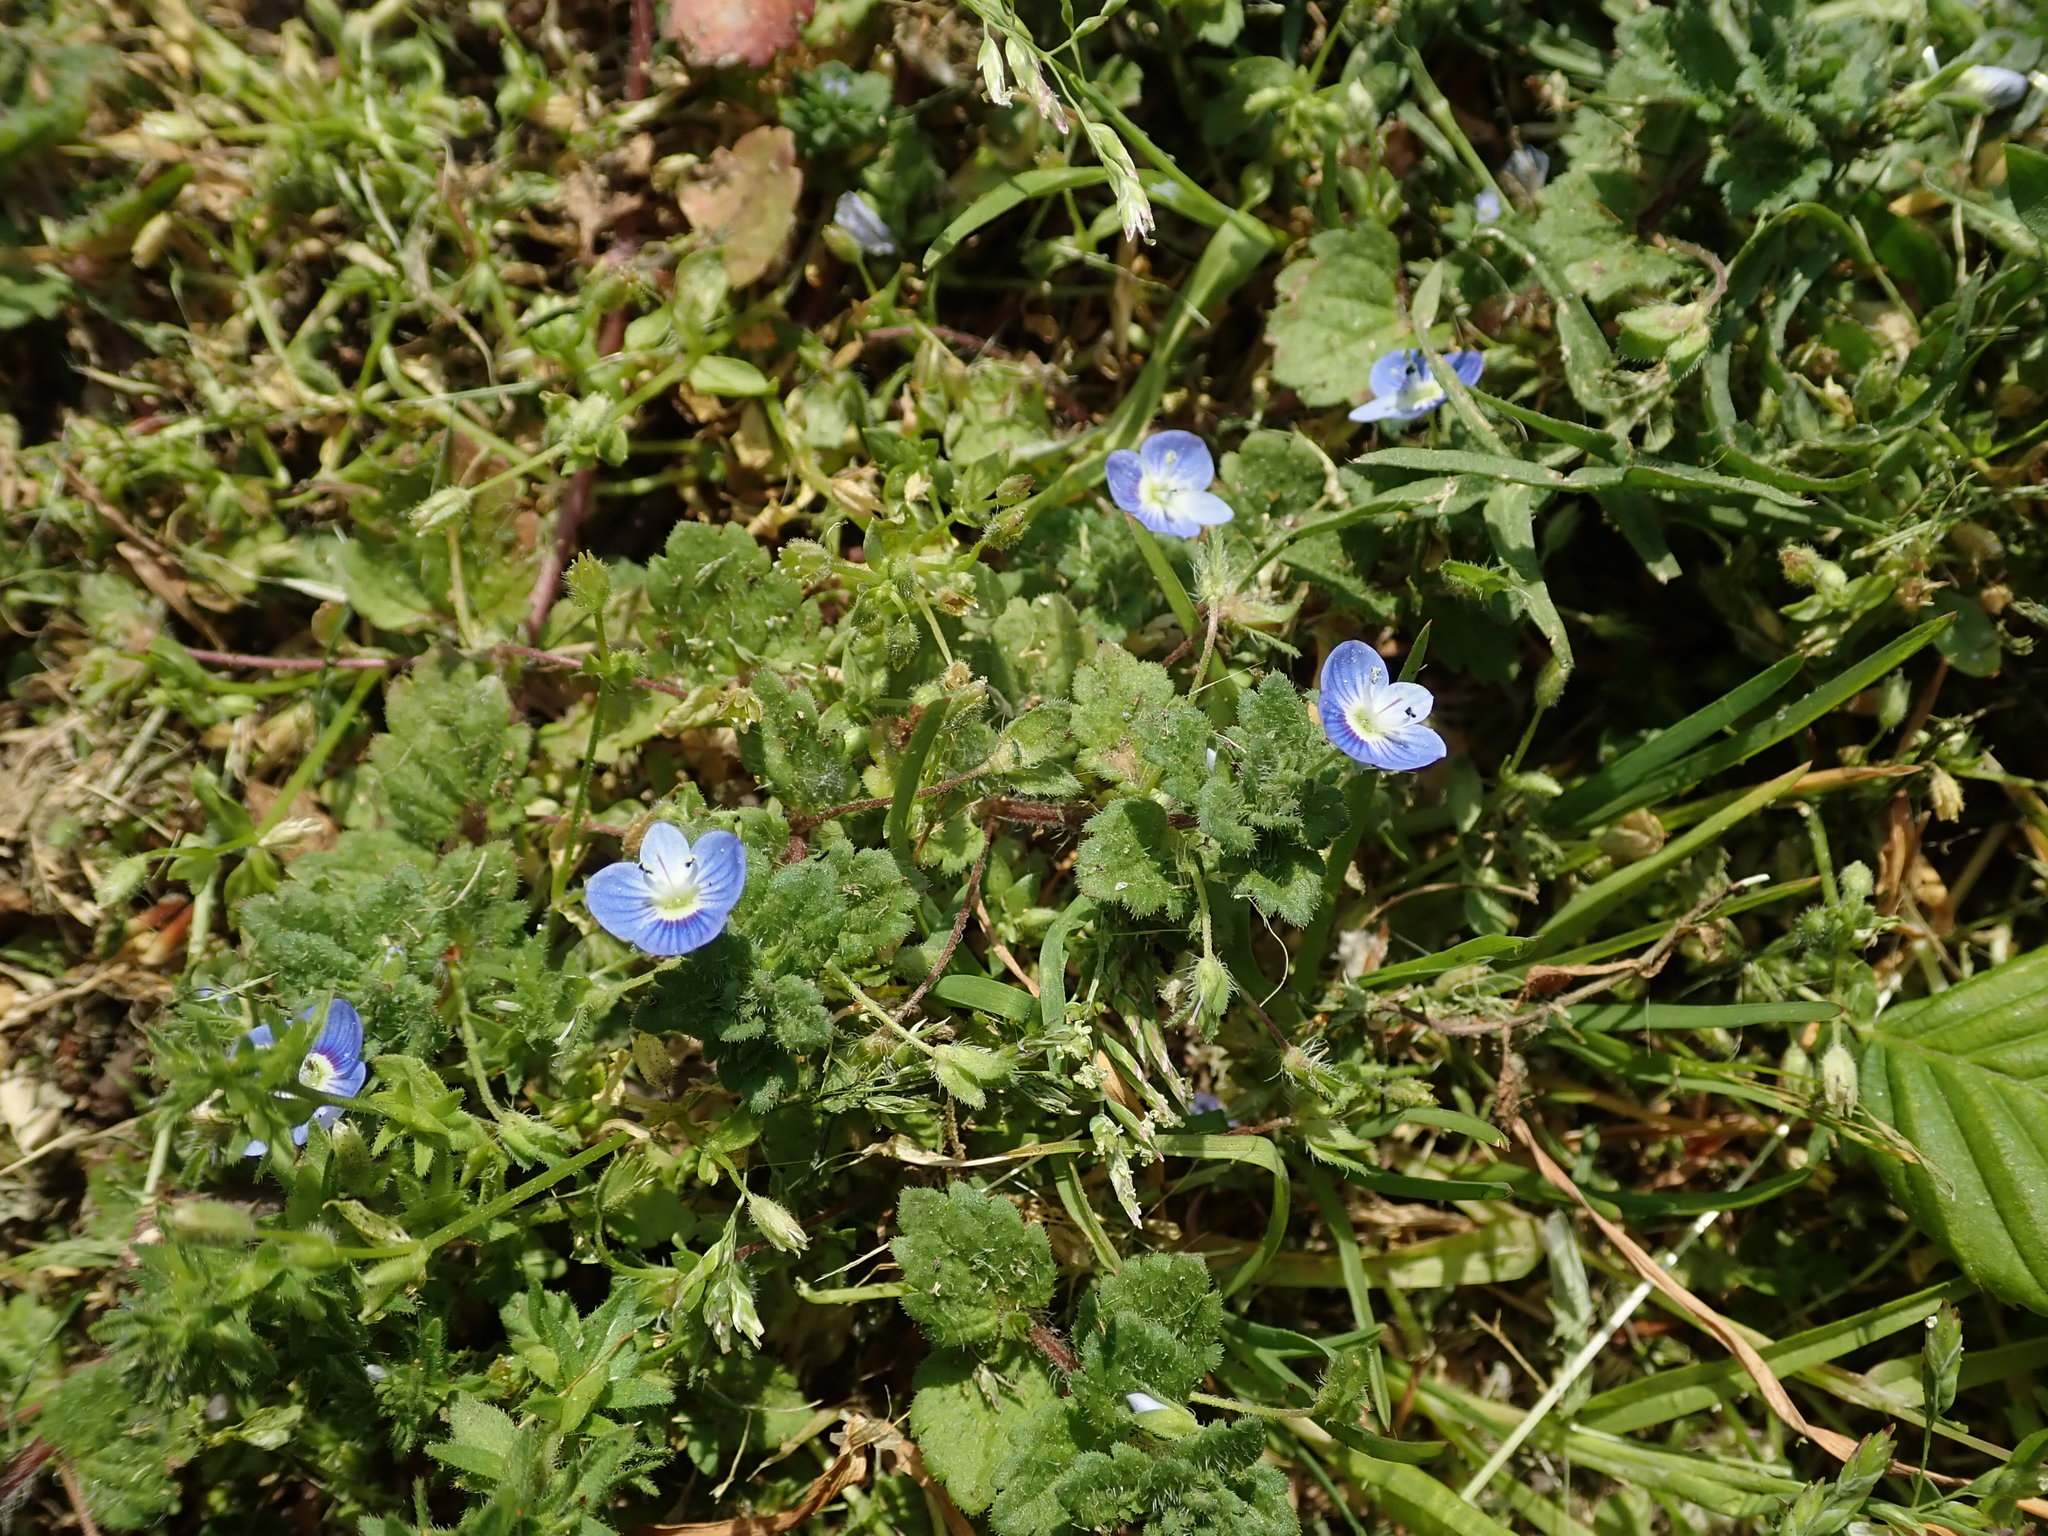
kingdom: Plantae
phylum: Tracheophyta
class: Magnoliopsida
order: Lamiales
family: Plantaginaceae
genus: Veronica
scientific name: Veronica persica
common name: Common field-speedwell
